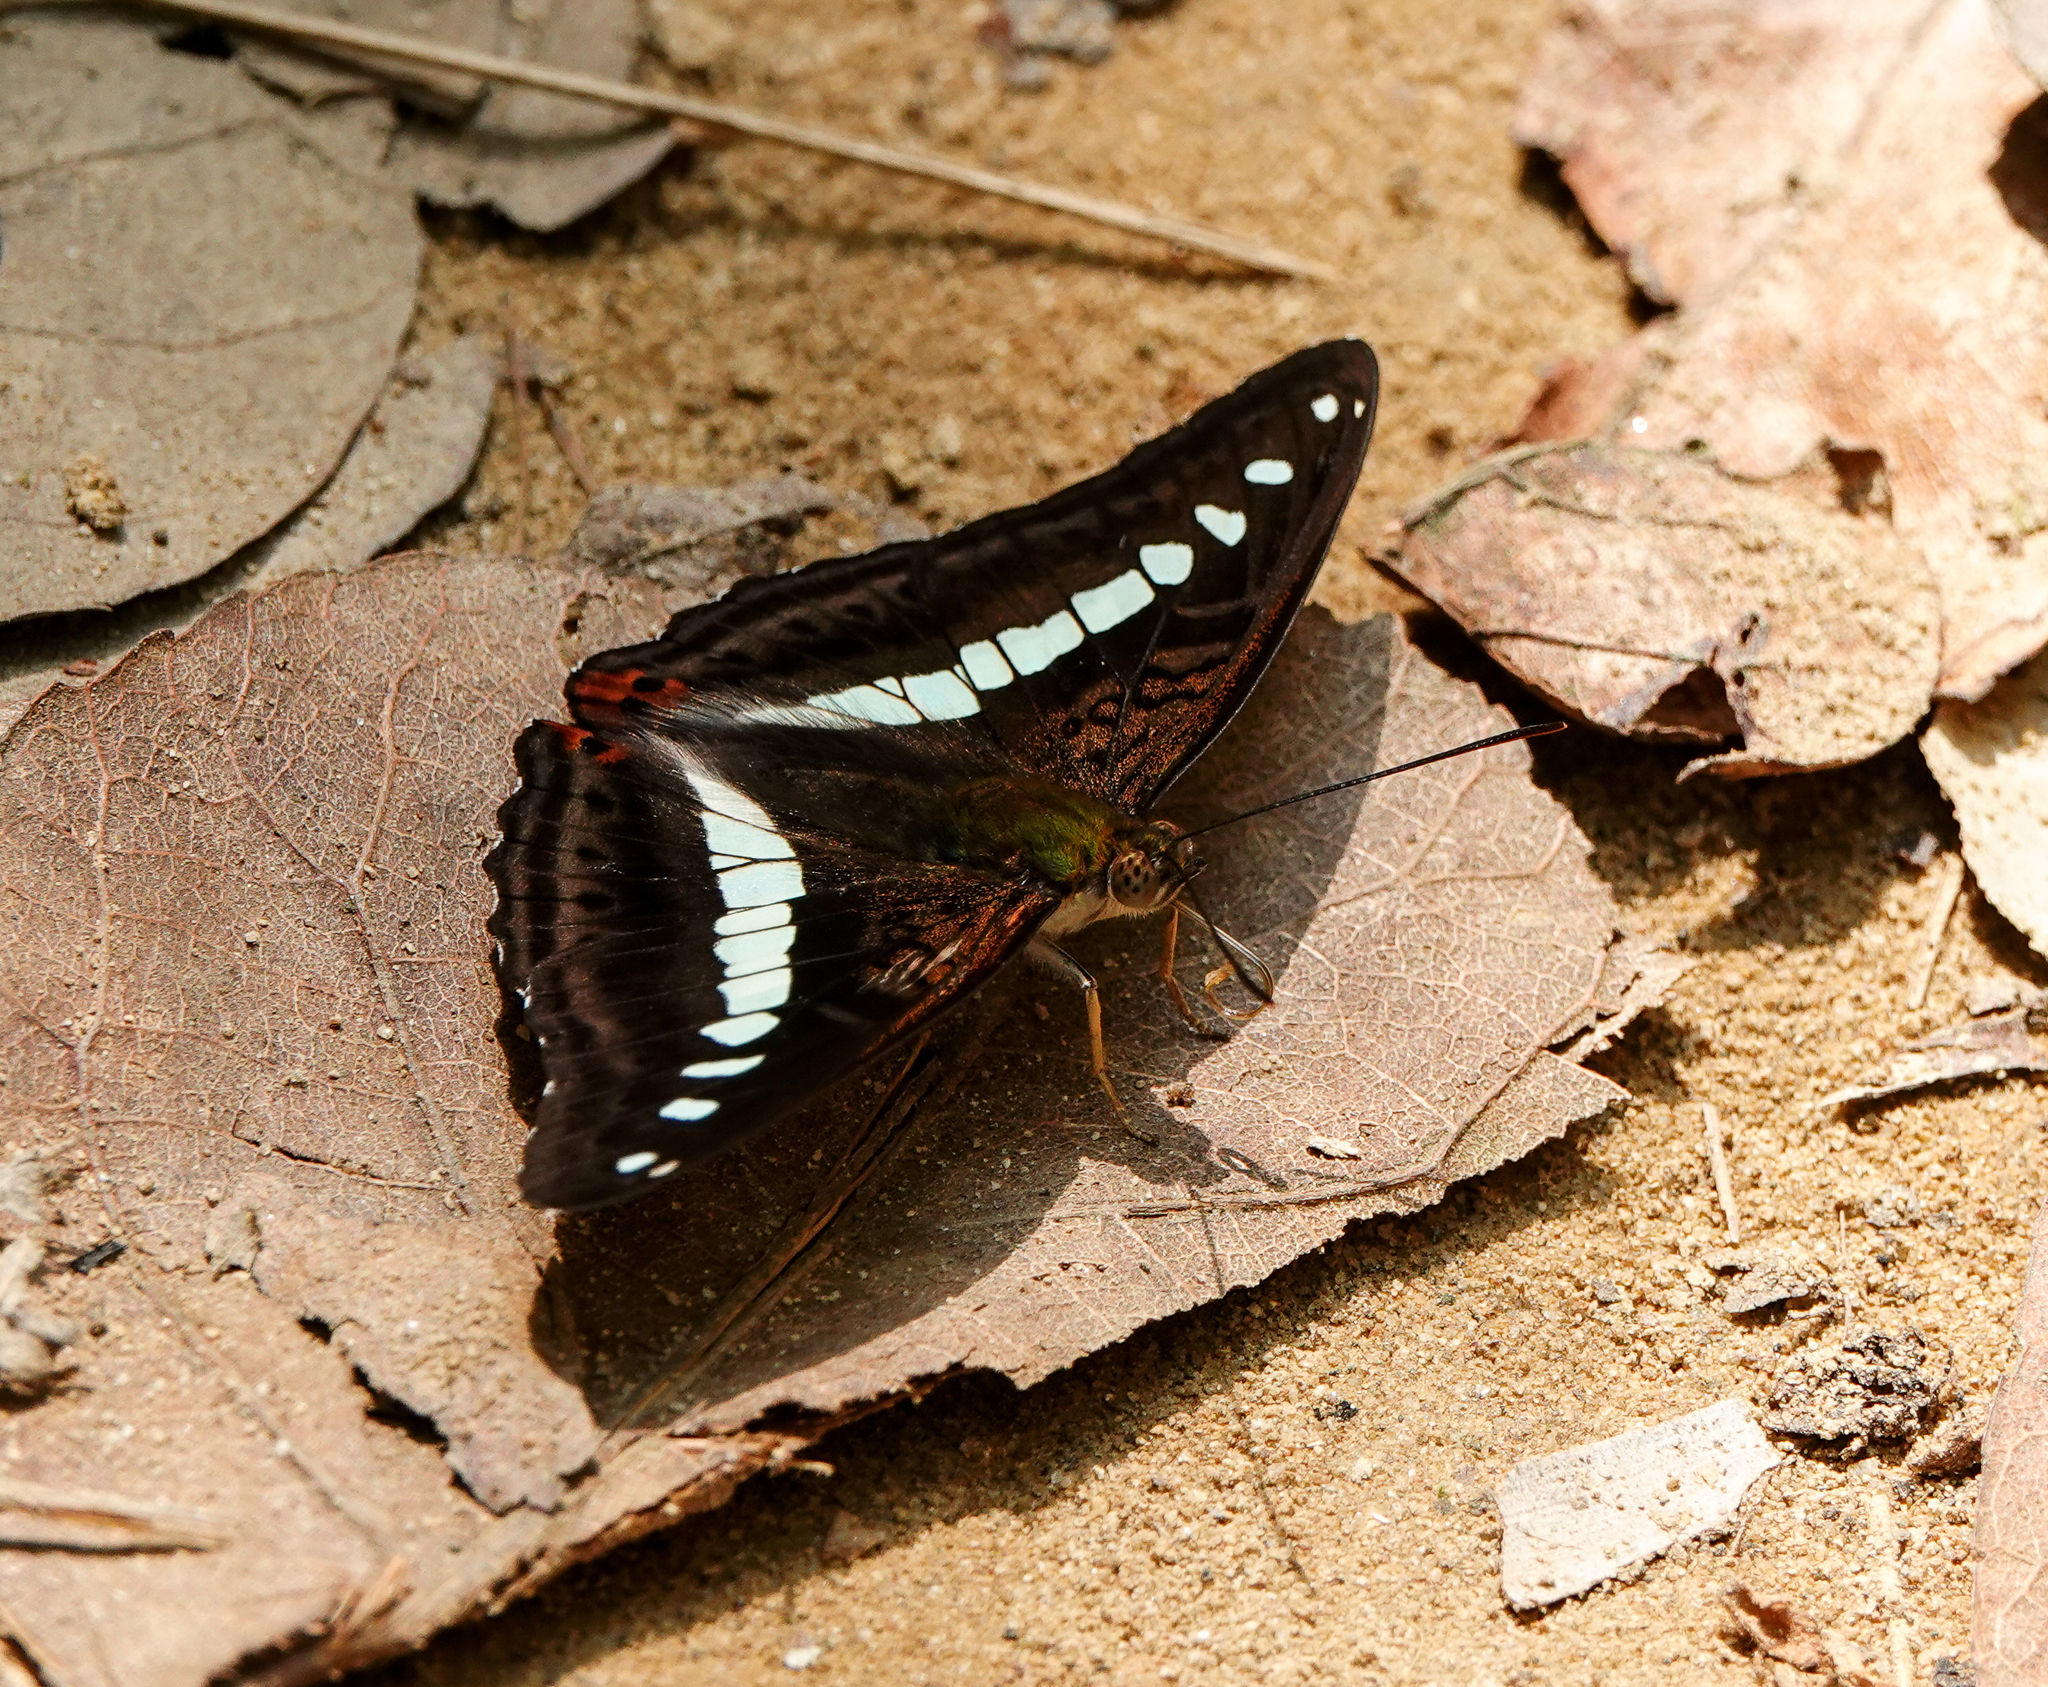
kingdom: Animalia
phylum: Arthropoda
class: Insecta
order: Lepidoptera
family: Nymphalidae
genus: Limenitis
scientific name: Limenitis Sumalia daraxa
